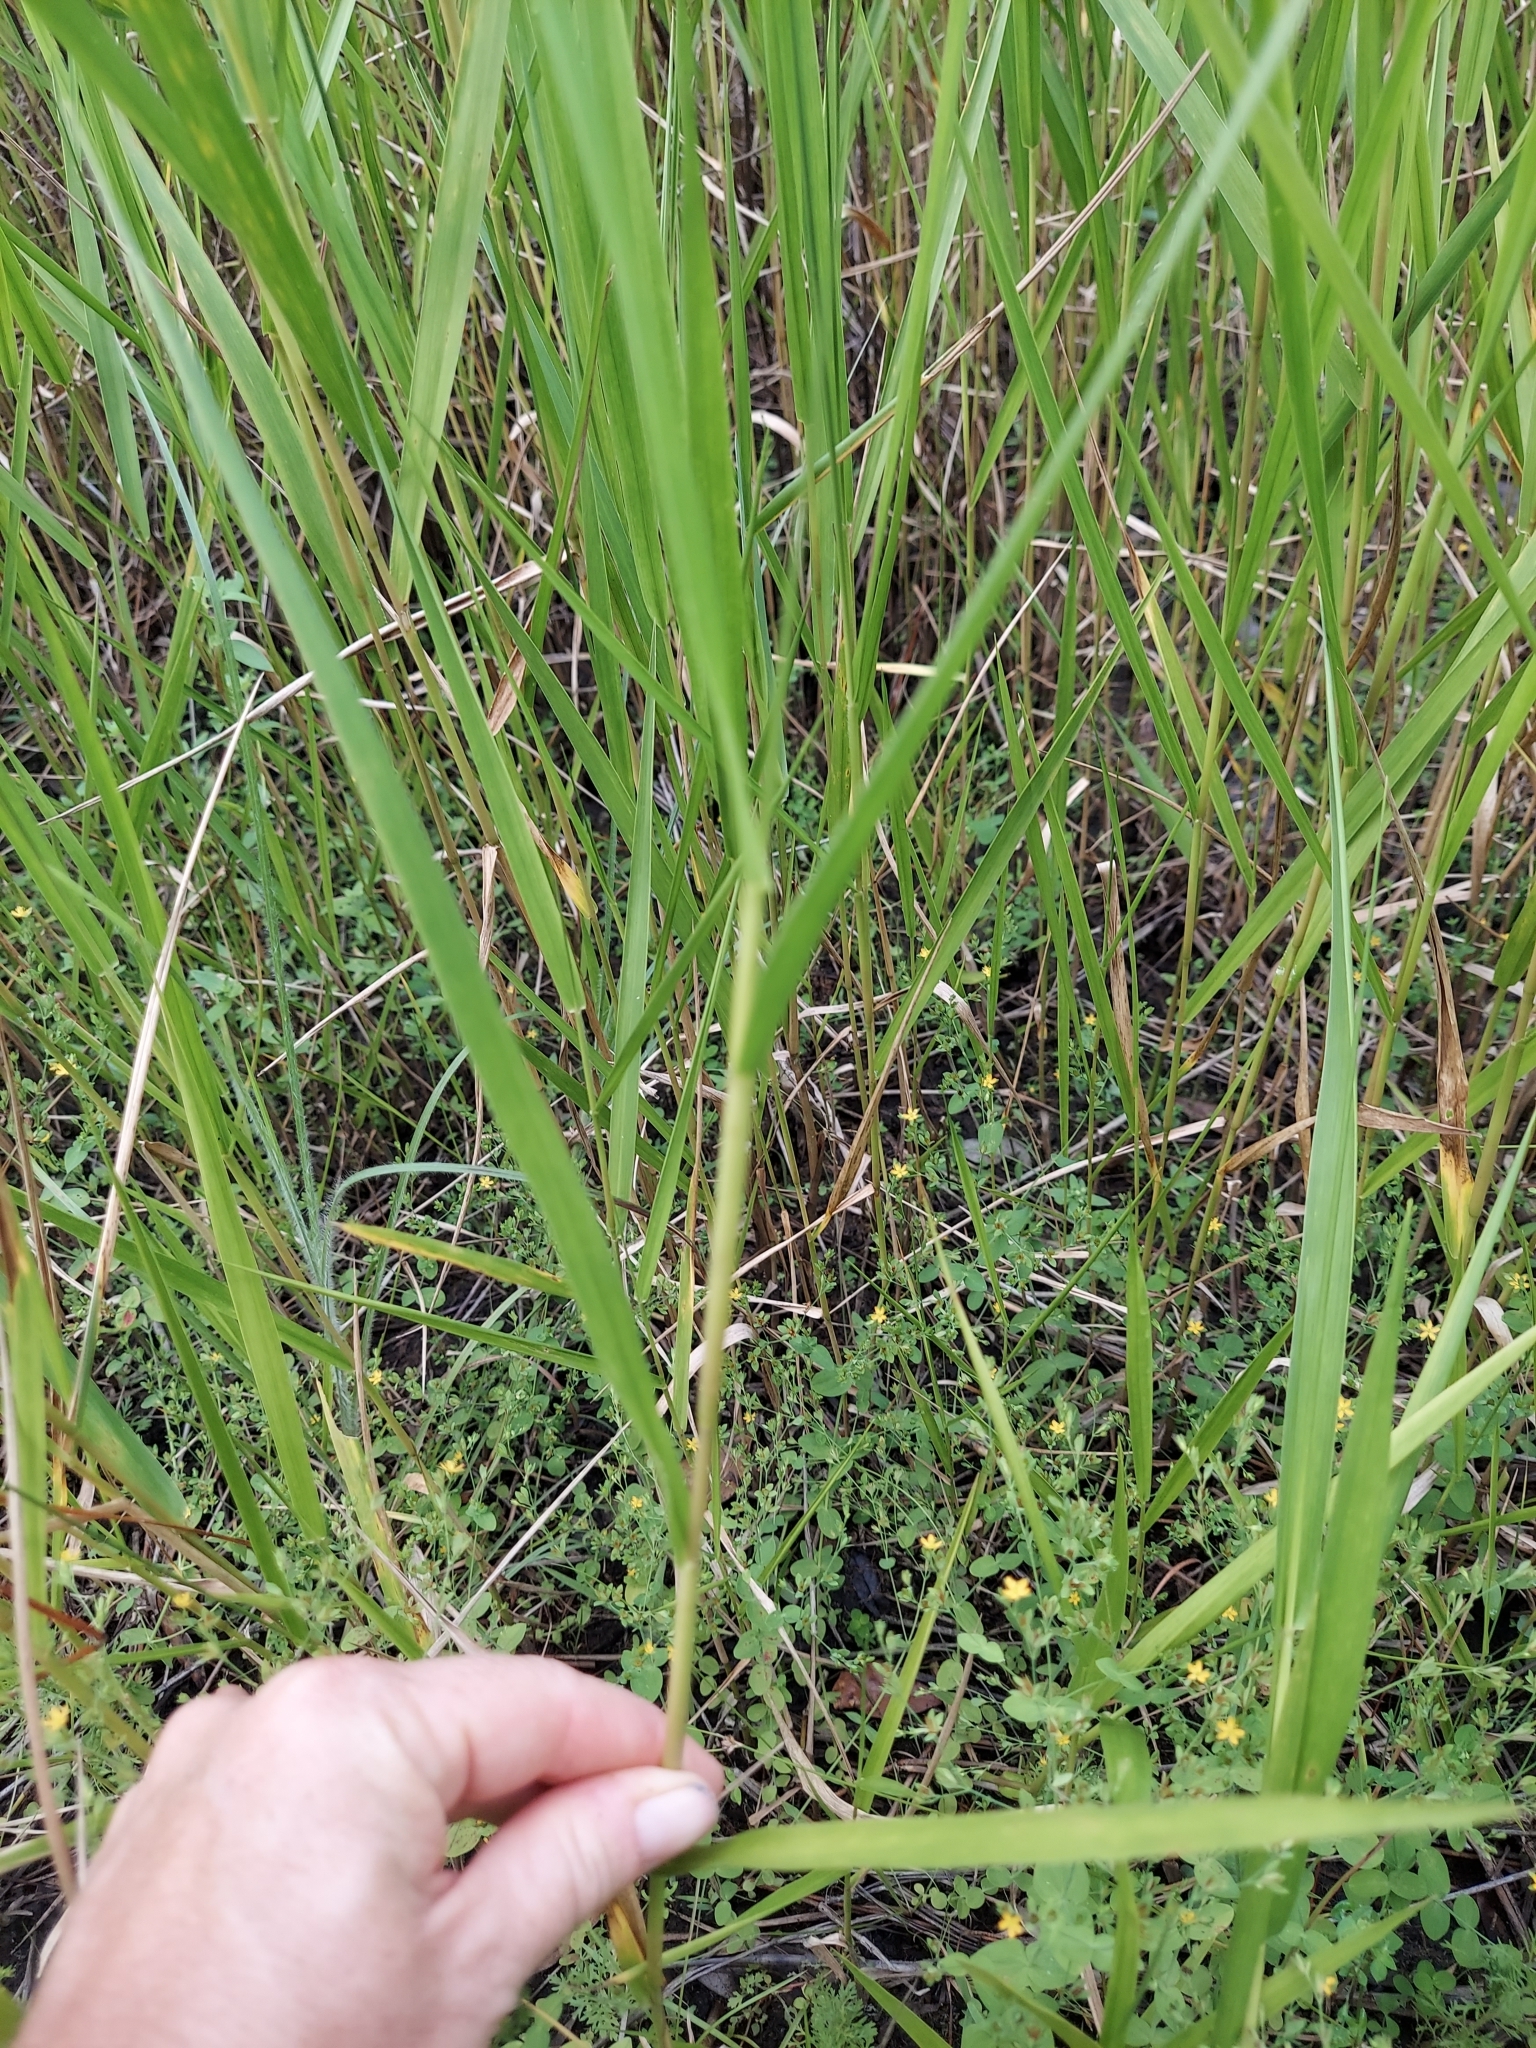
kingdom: Plantae
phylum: Tracheophyta
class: Liliopsida
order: Poales
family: Poaceae
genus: Panicum
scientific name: Panicum hemitomon
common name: Maidencane
